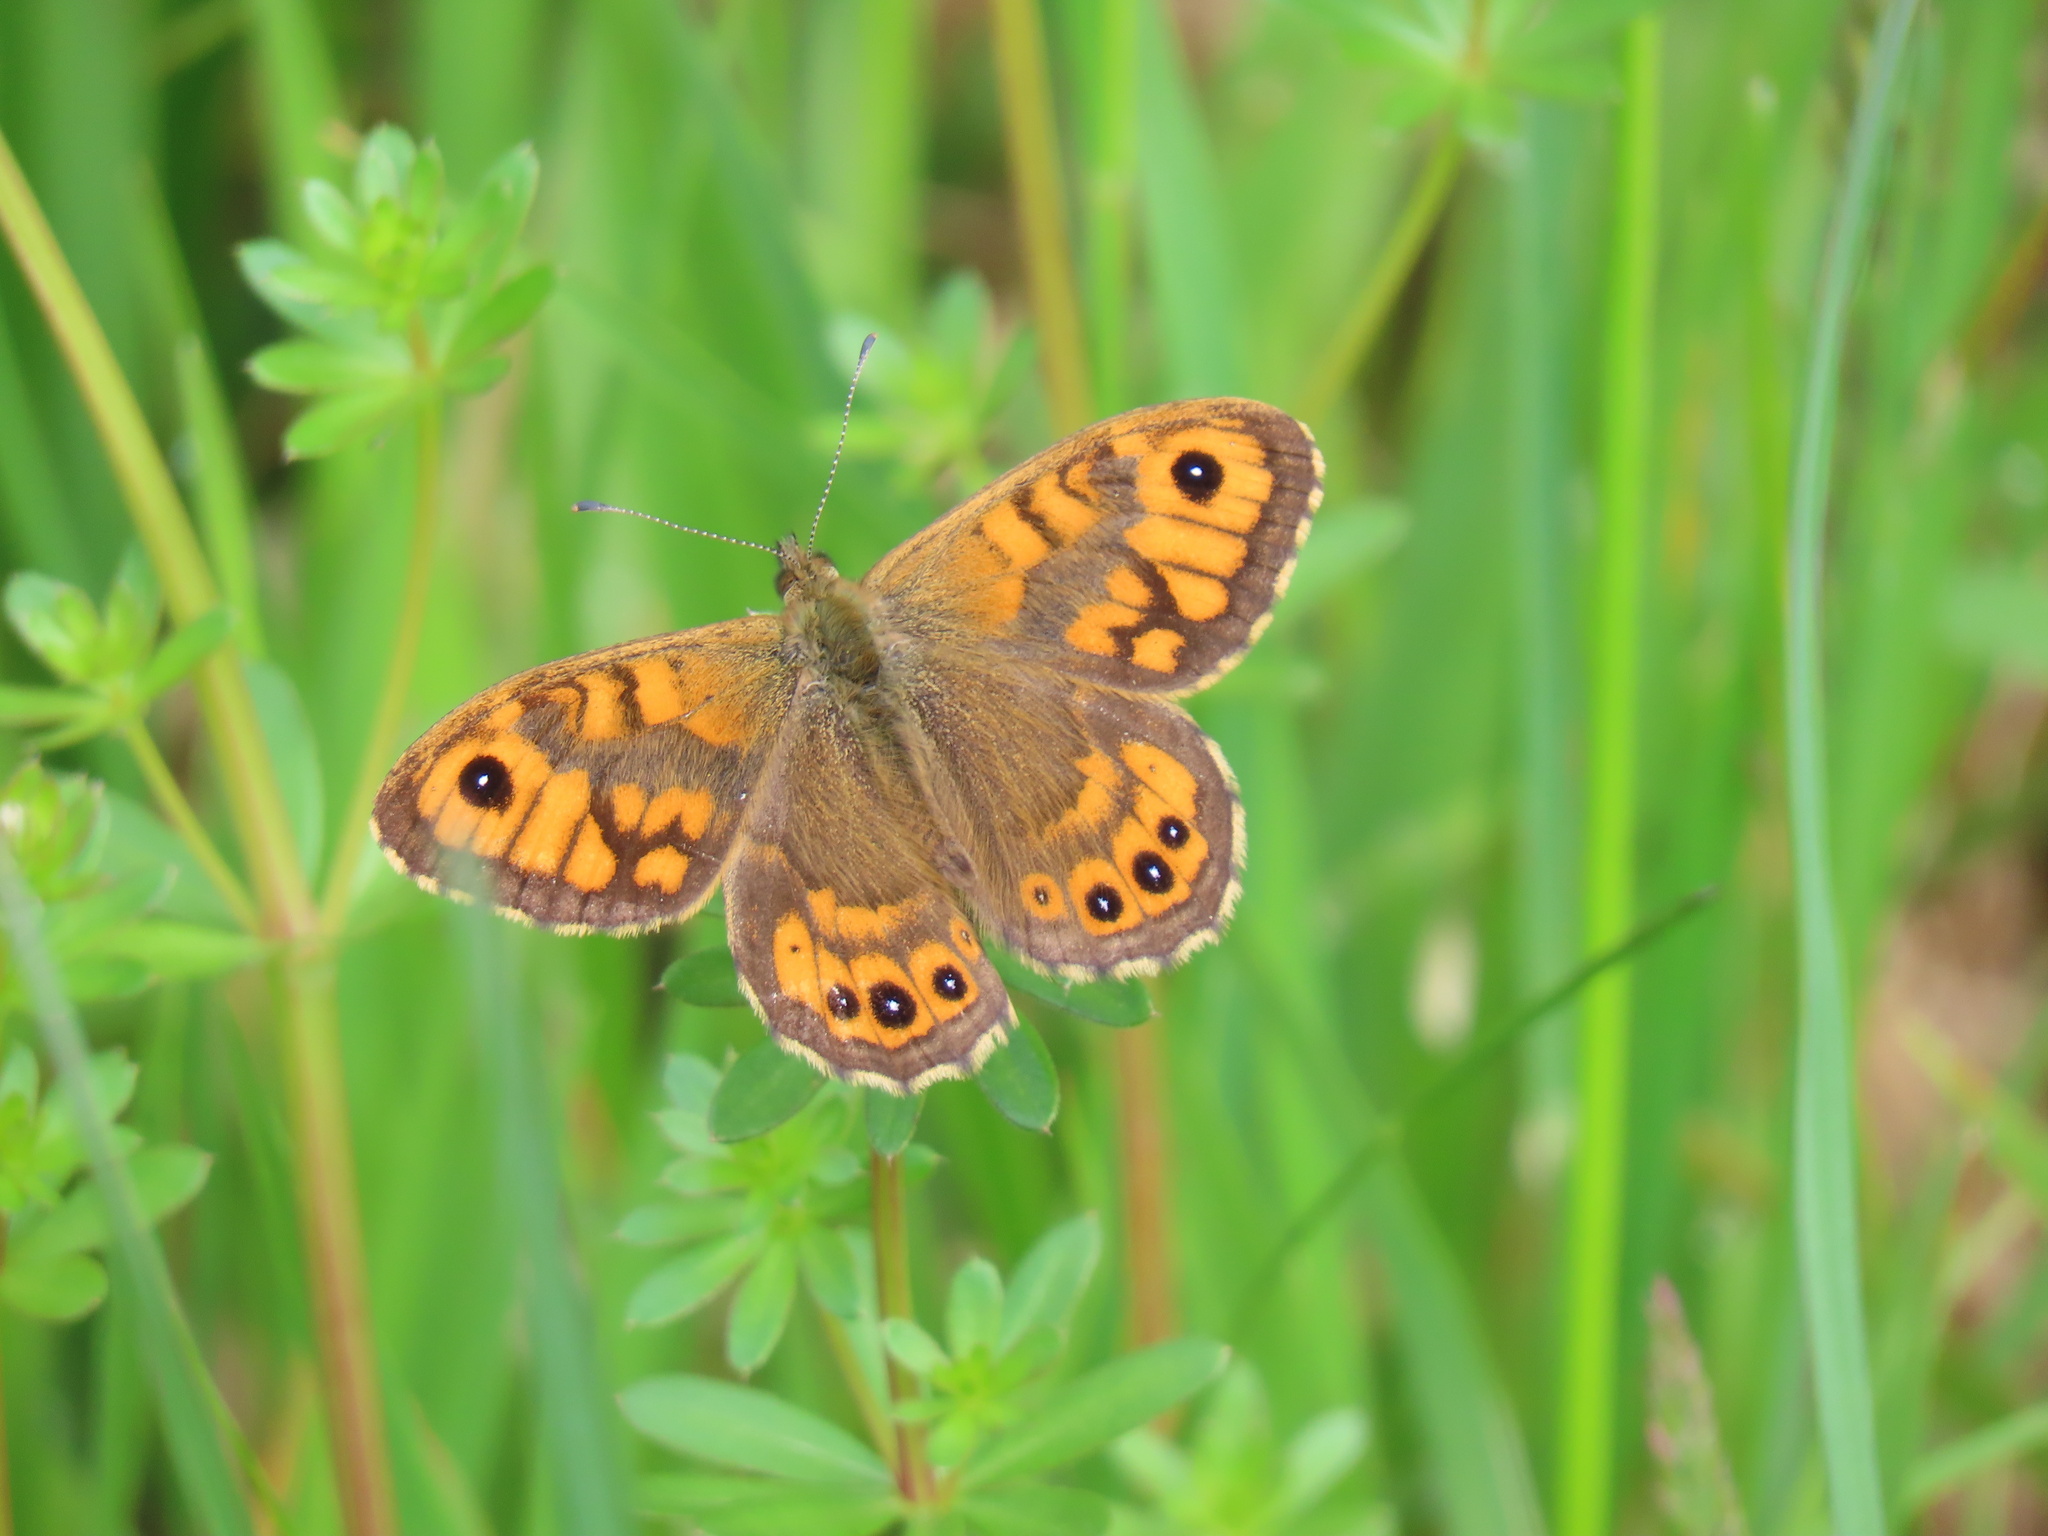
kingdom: Animalia
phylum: Arthropoda
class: Insecta
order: Lepidoptera
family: Nymphalidae
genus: Pararge
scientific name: Pararge Lasiommata megera
